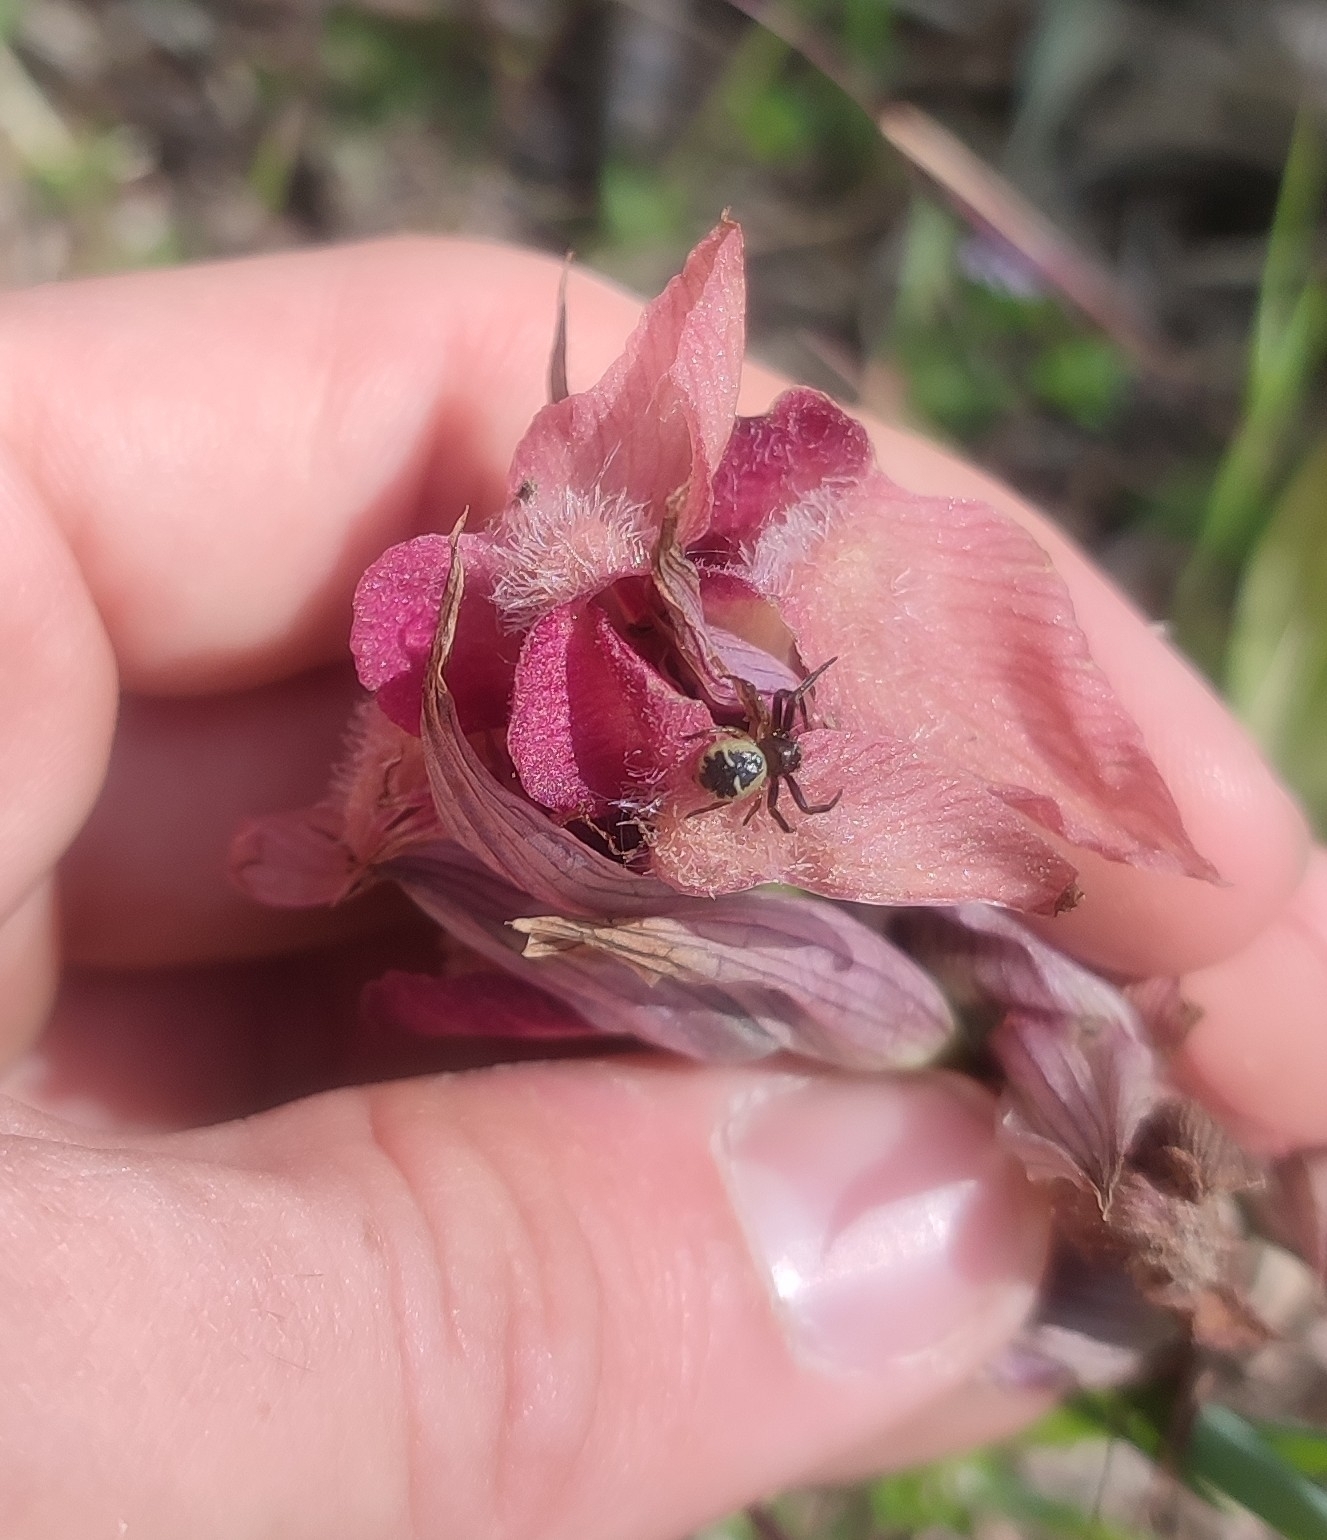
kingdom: Animalia
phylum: Arthropoda
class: Arachnida
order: Araneae
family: Thomisidae
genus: Synema
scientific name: Synema globosum
